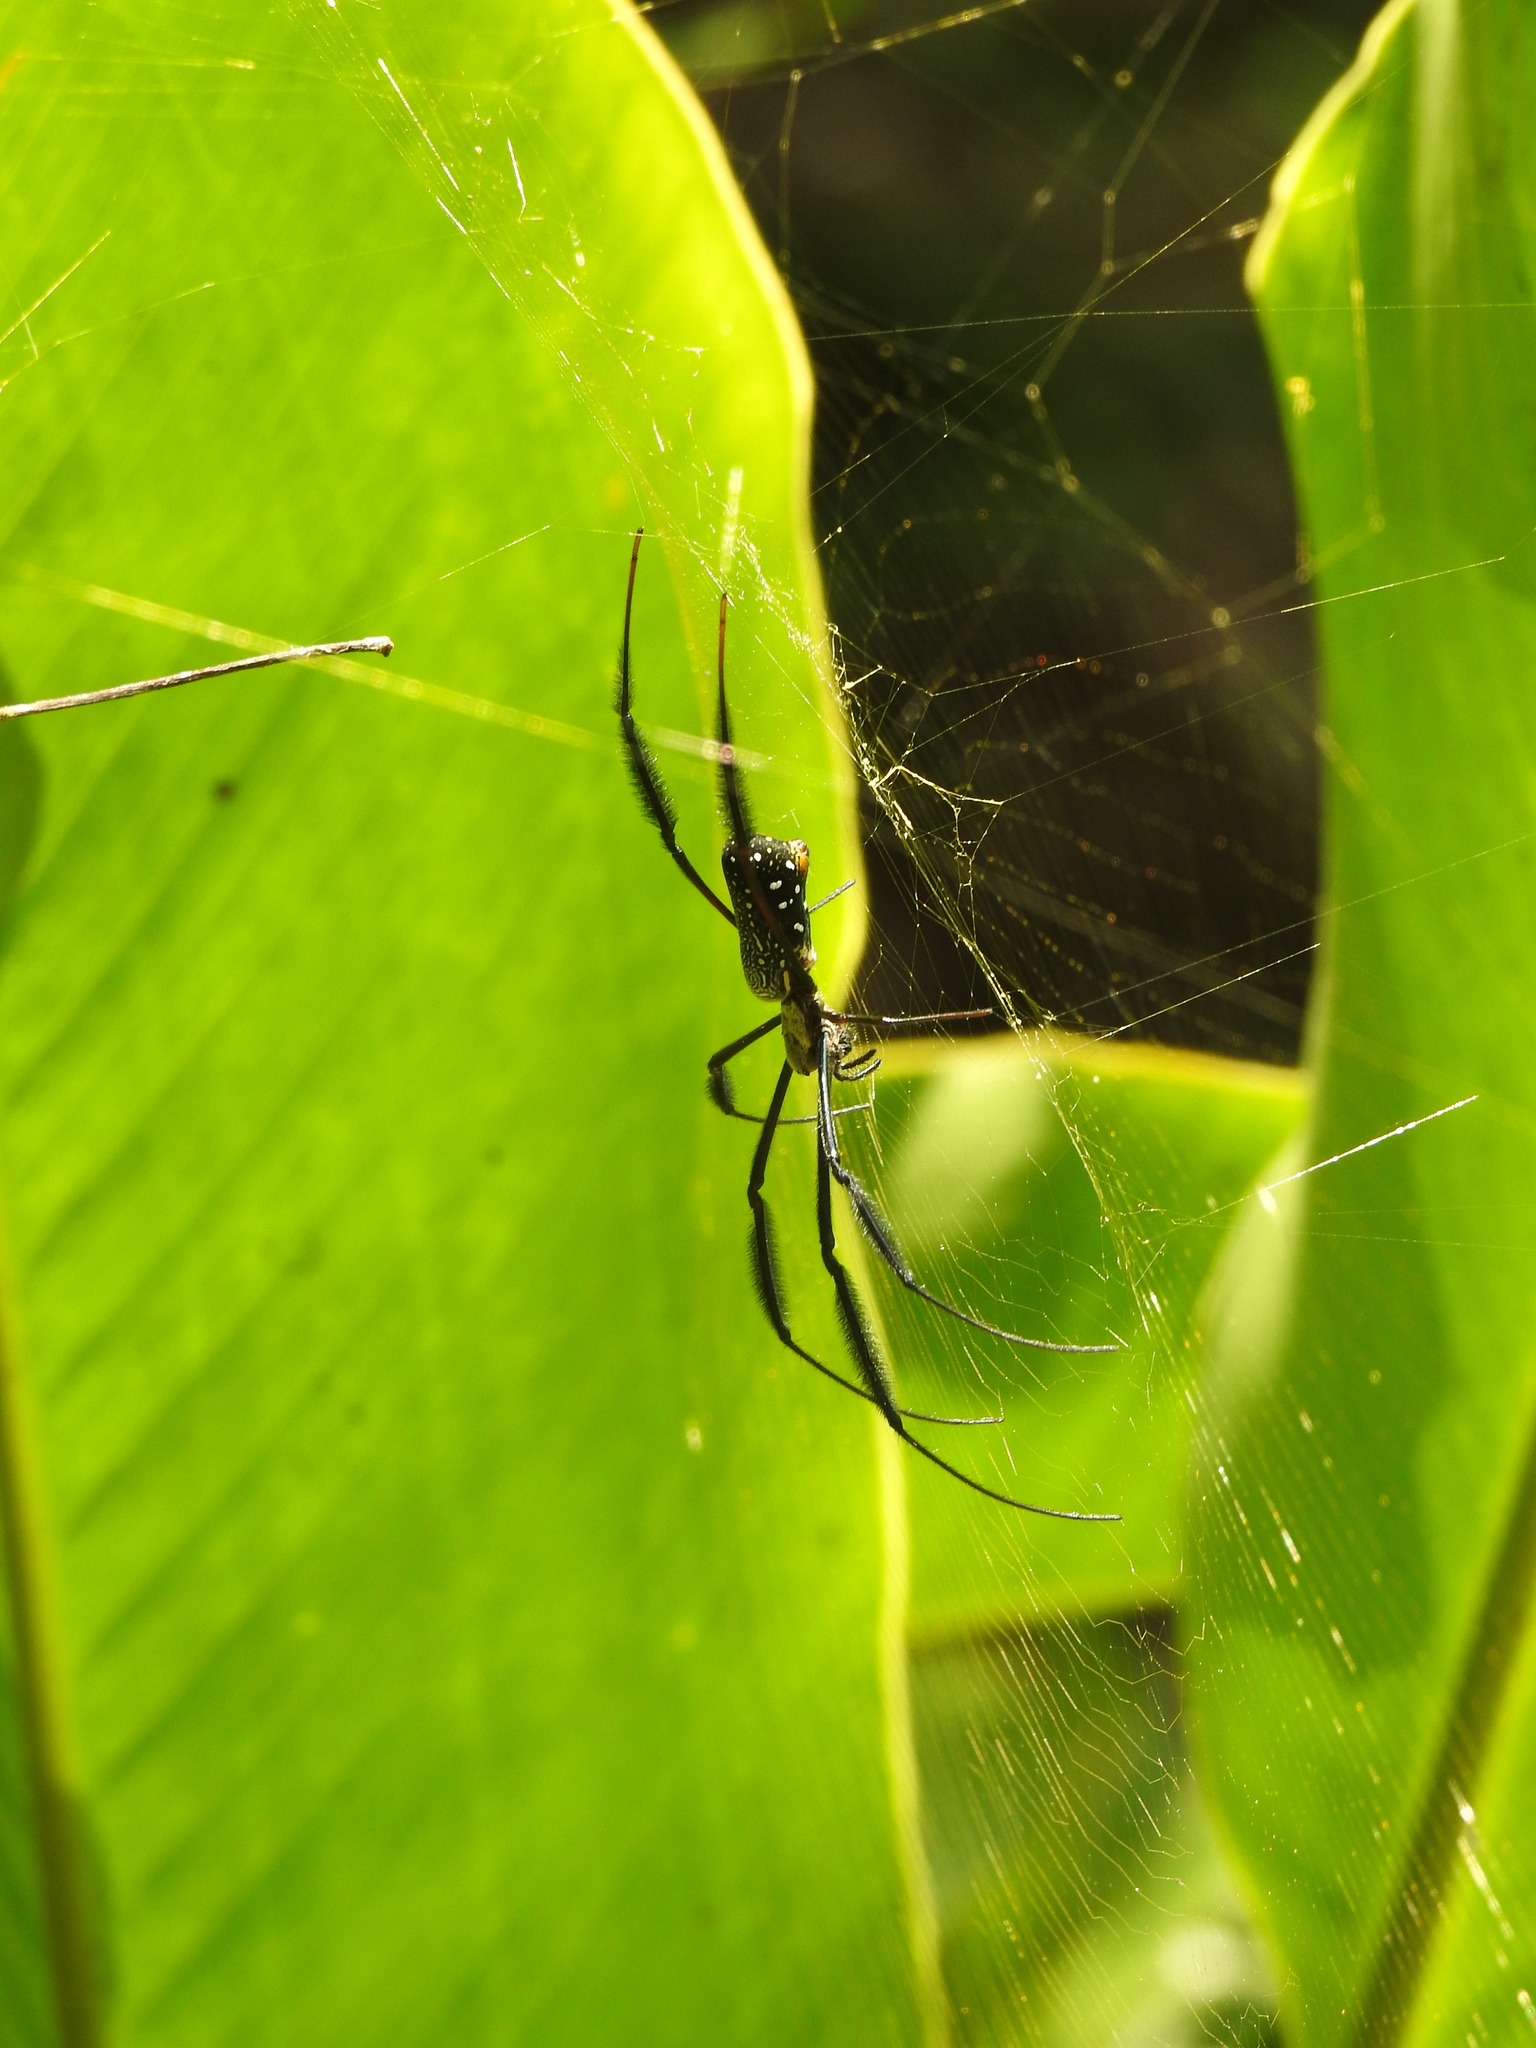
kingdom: Animalia
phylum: Arthropoda
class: Arachnida
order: Araneae
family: Araneidae
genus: Trichonephila
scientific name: Trichonephila fenestrata
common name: Hairy golden orb weaver
